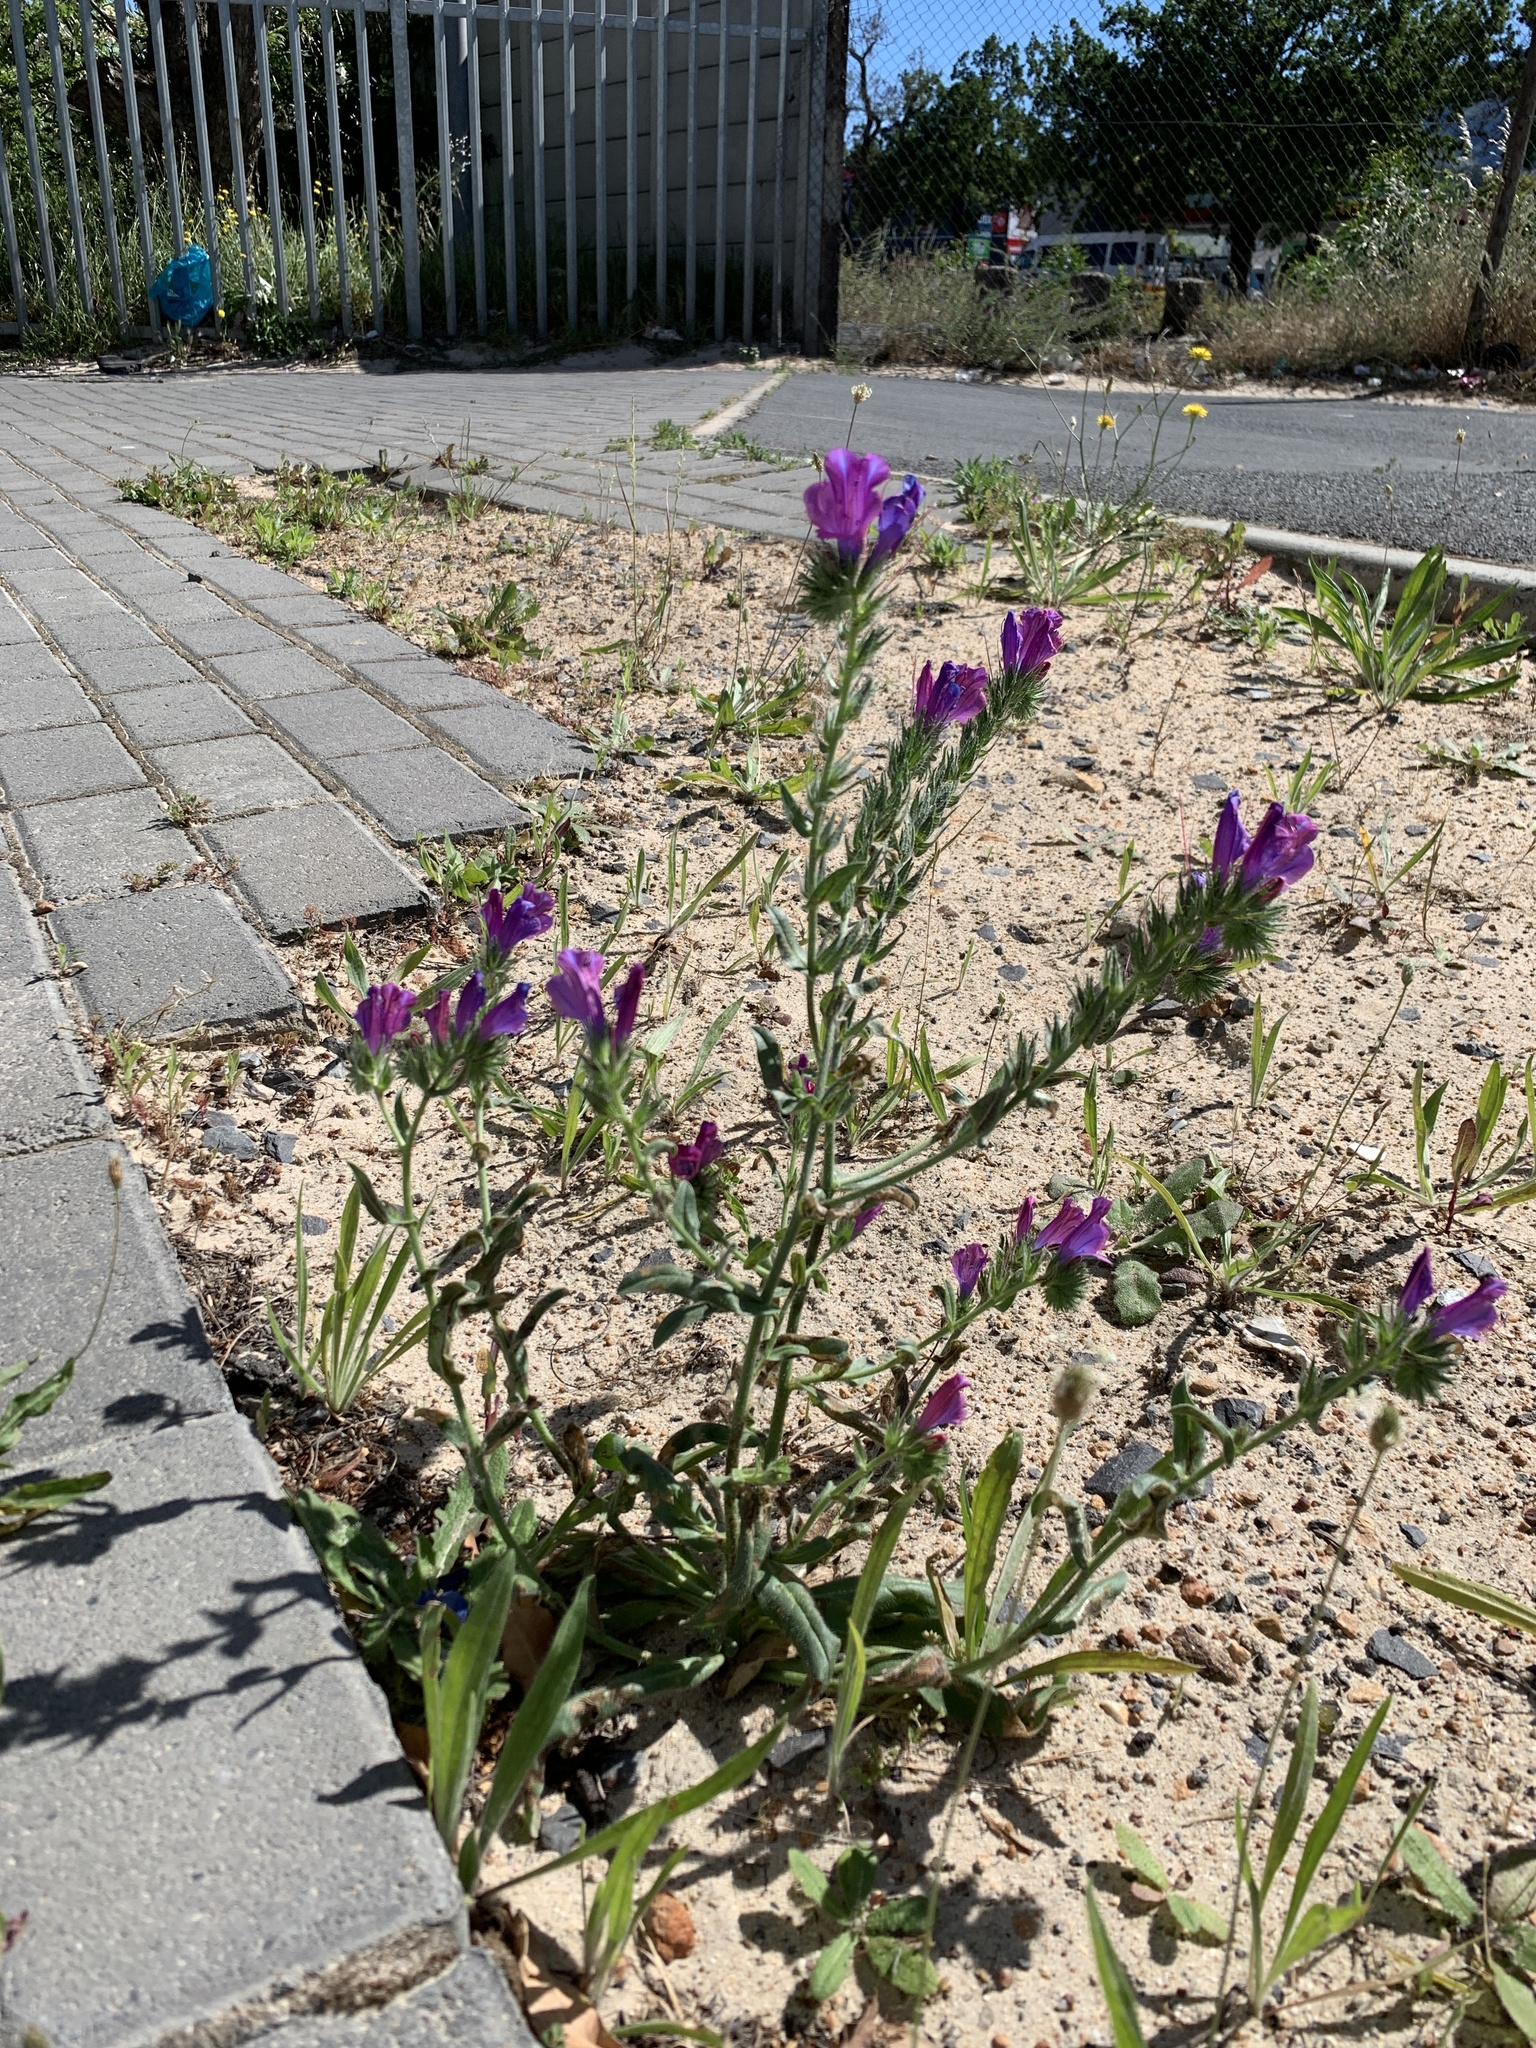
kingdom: Plantae
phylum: Tracheophyta
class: Magnoliopsida
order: Boraginales
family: Boraginaceae
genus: Echium
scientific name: Echium plantagineum
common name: Purple viper's-bugloss
